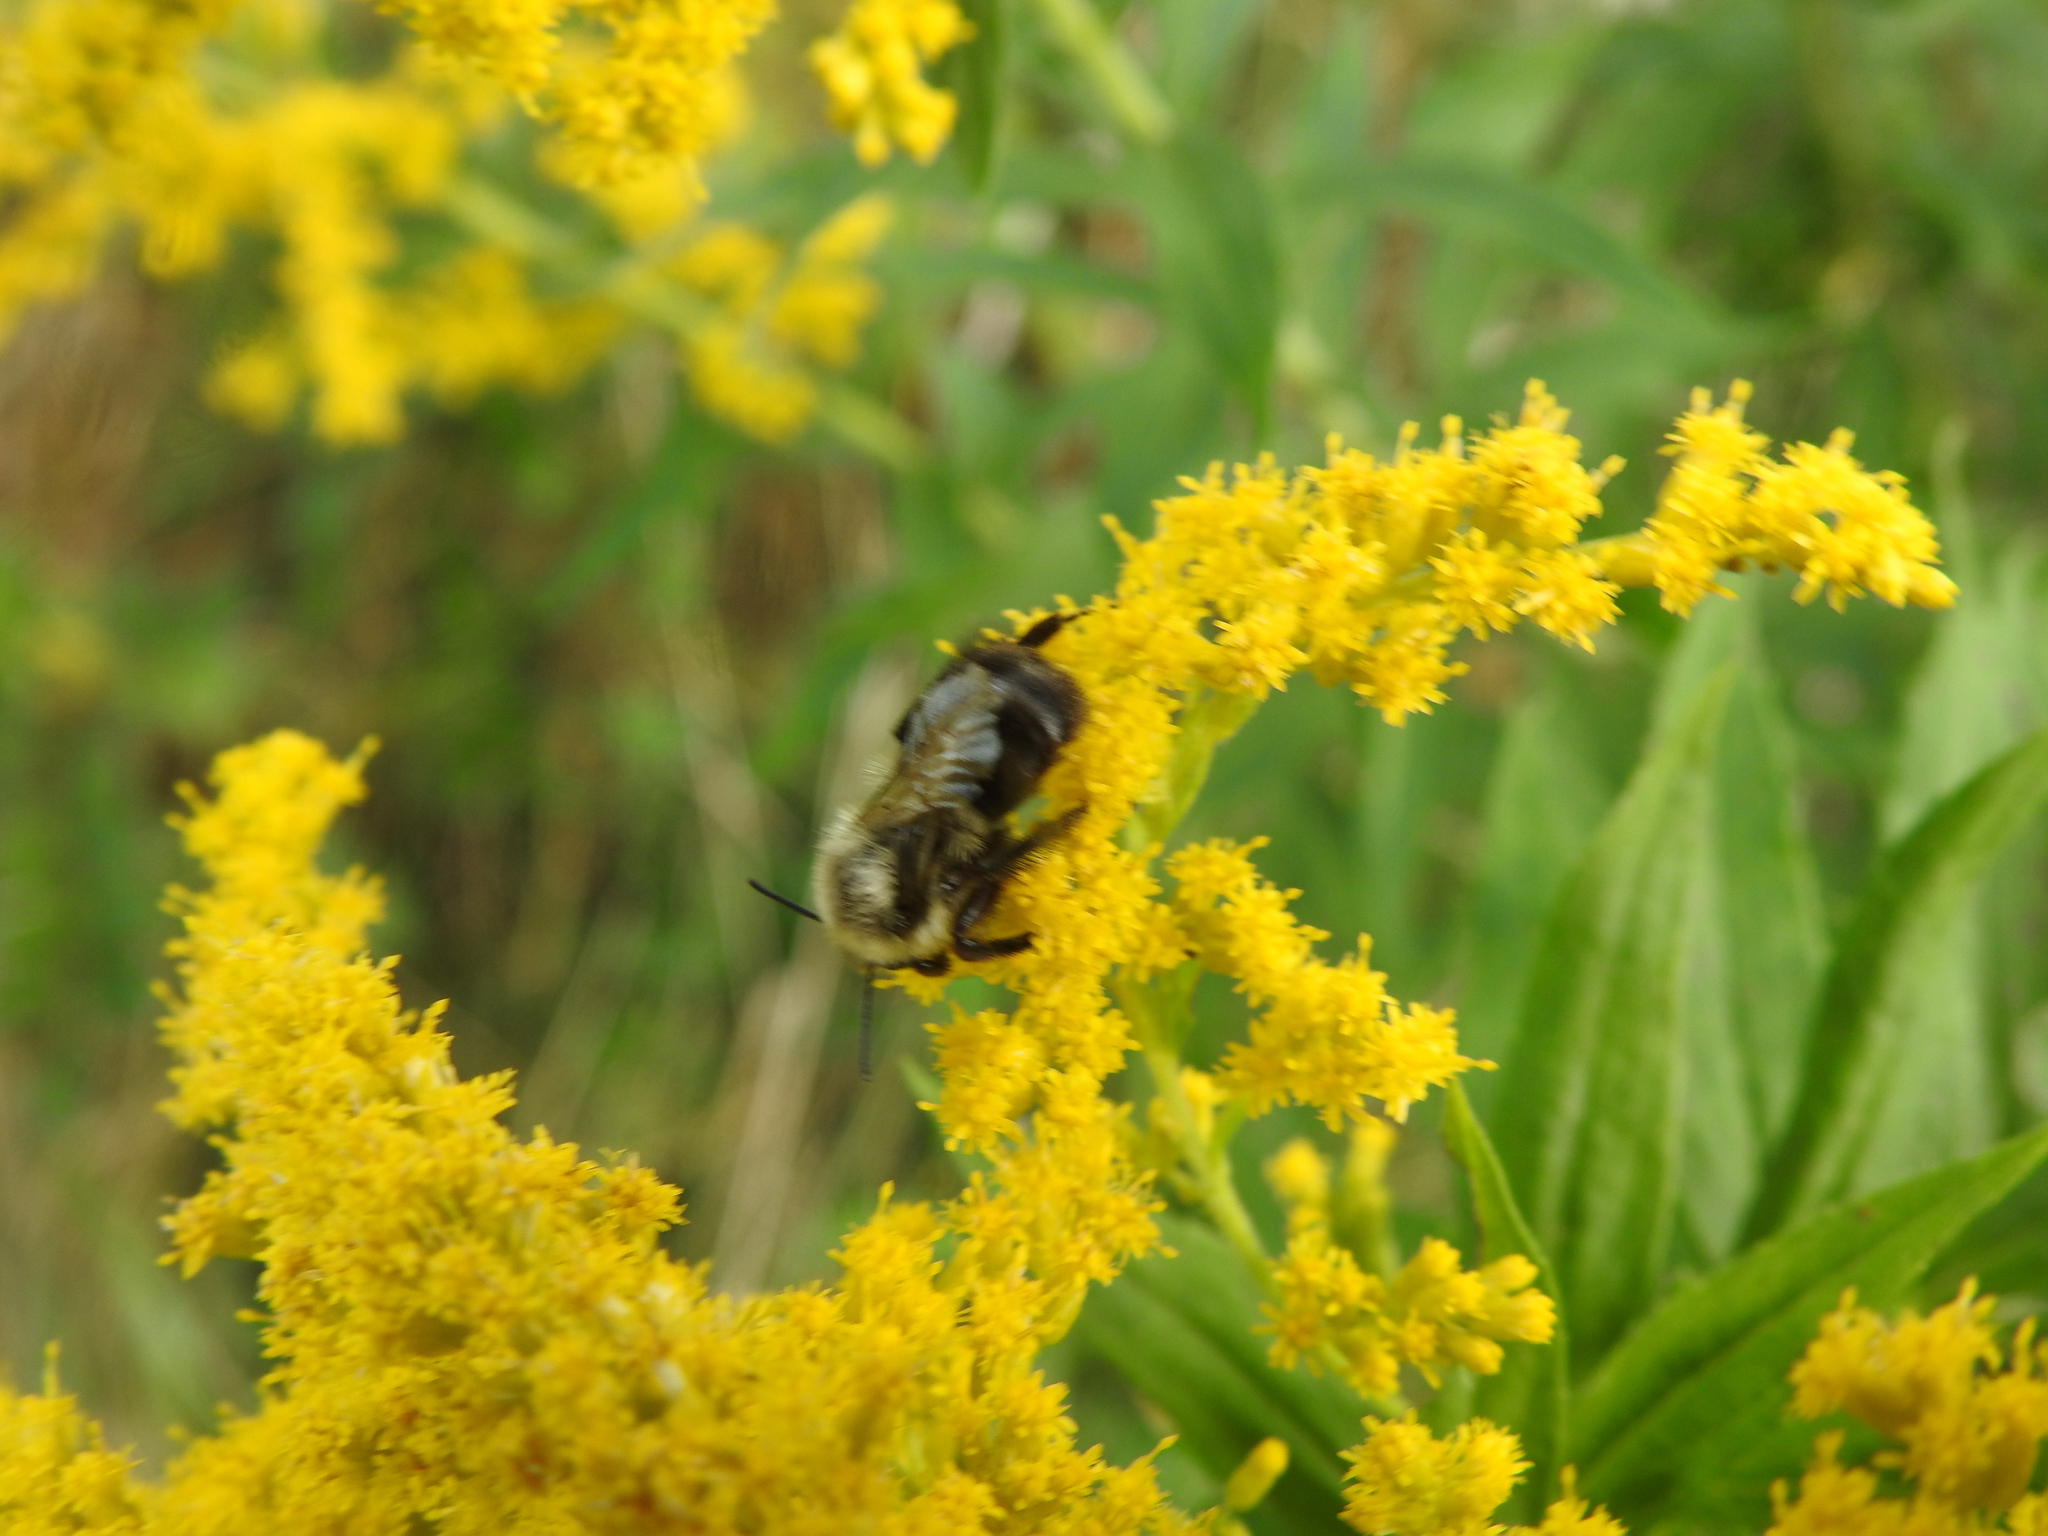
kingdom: Animalia
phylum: Arthropoda
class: Insecta
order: Hymenoptera
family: Apidae
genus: Bombus
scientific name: Bombus impatiens
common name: Common eastern bumble bee
